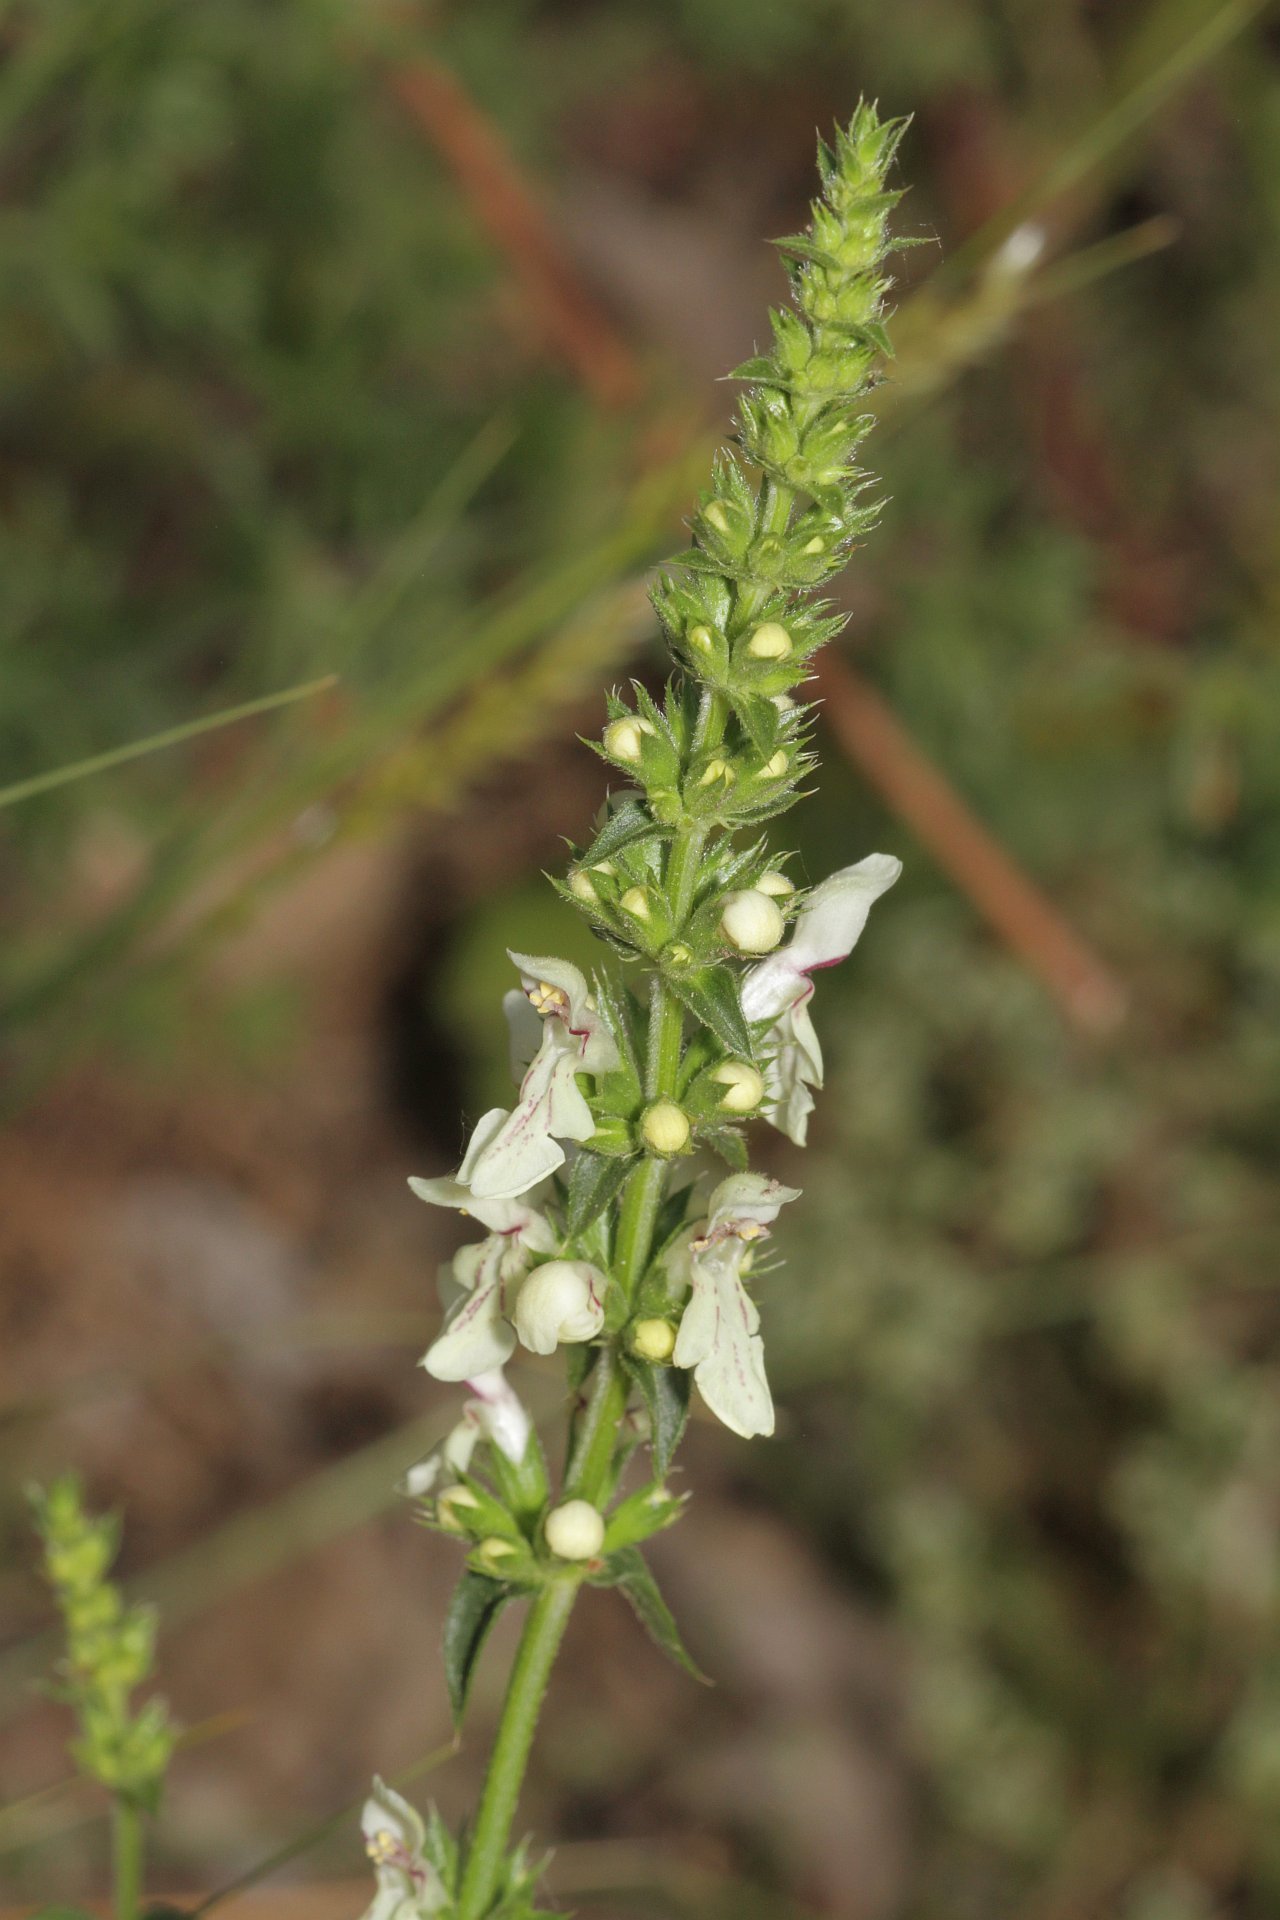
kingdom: Plantae
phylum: Tracheophyta
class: Magnoliopsida
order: Lamiales
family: Lamiaceae
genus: Stachys
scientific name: Stachys recta
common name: Perennial yellow-woundwort
